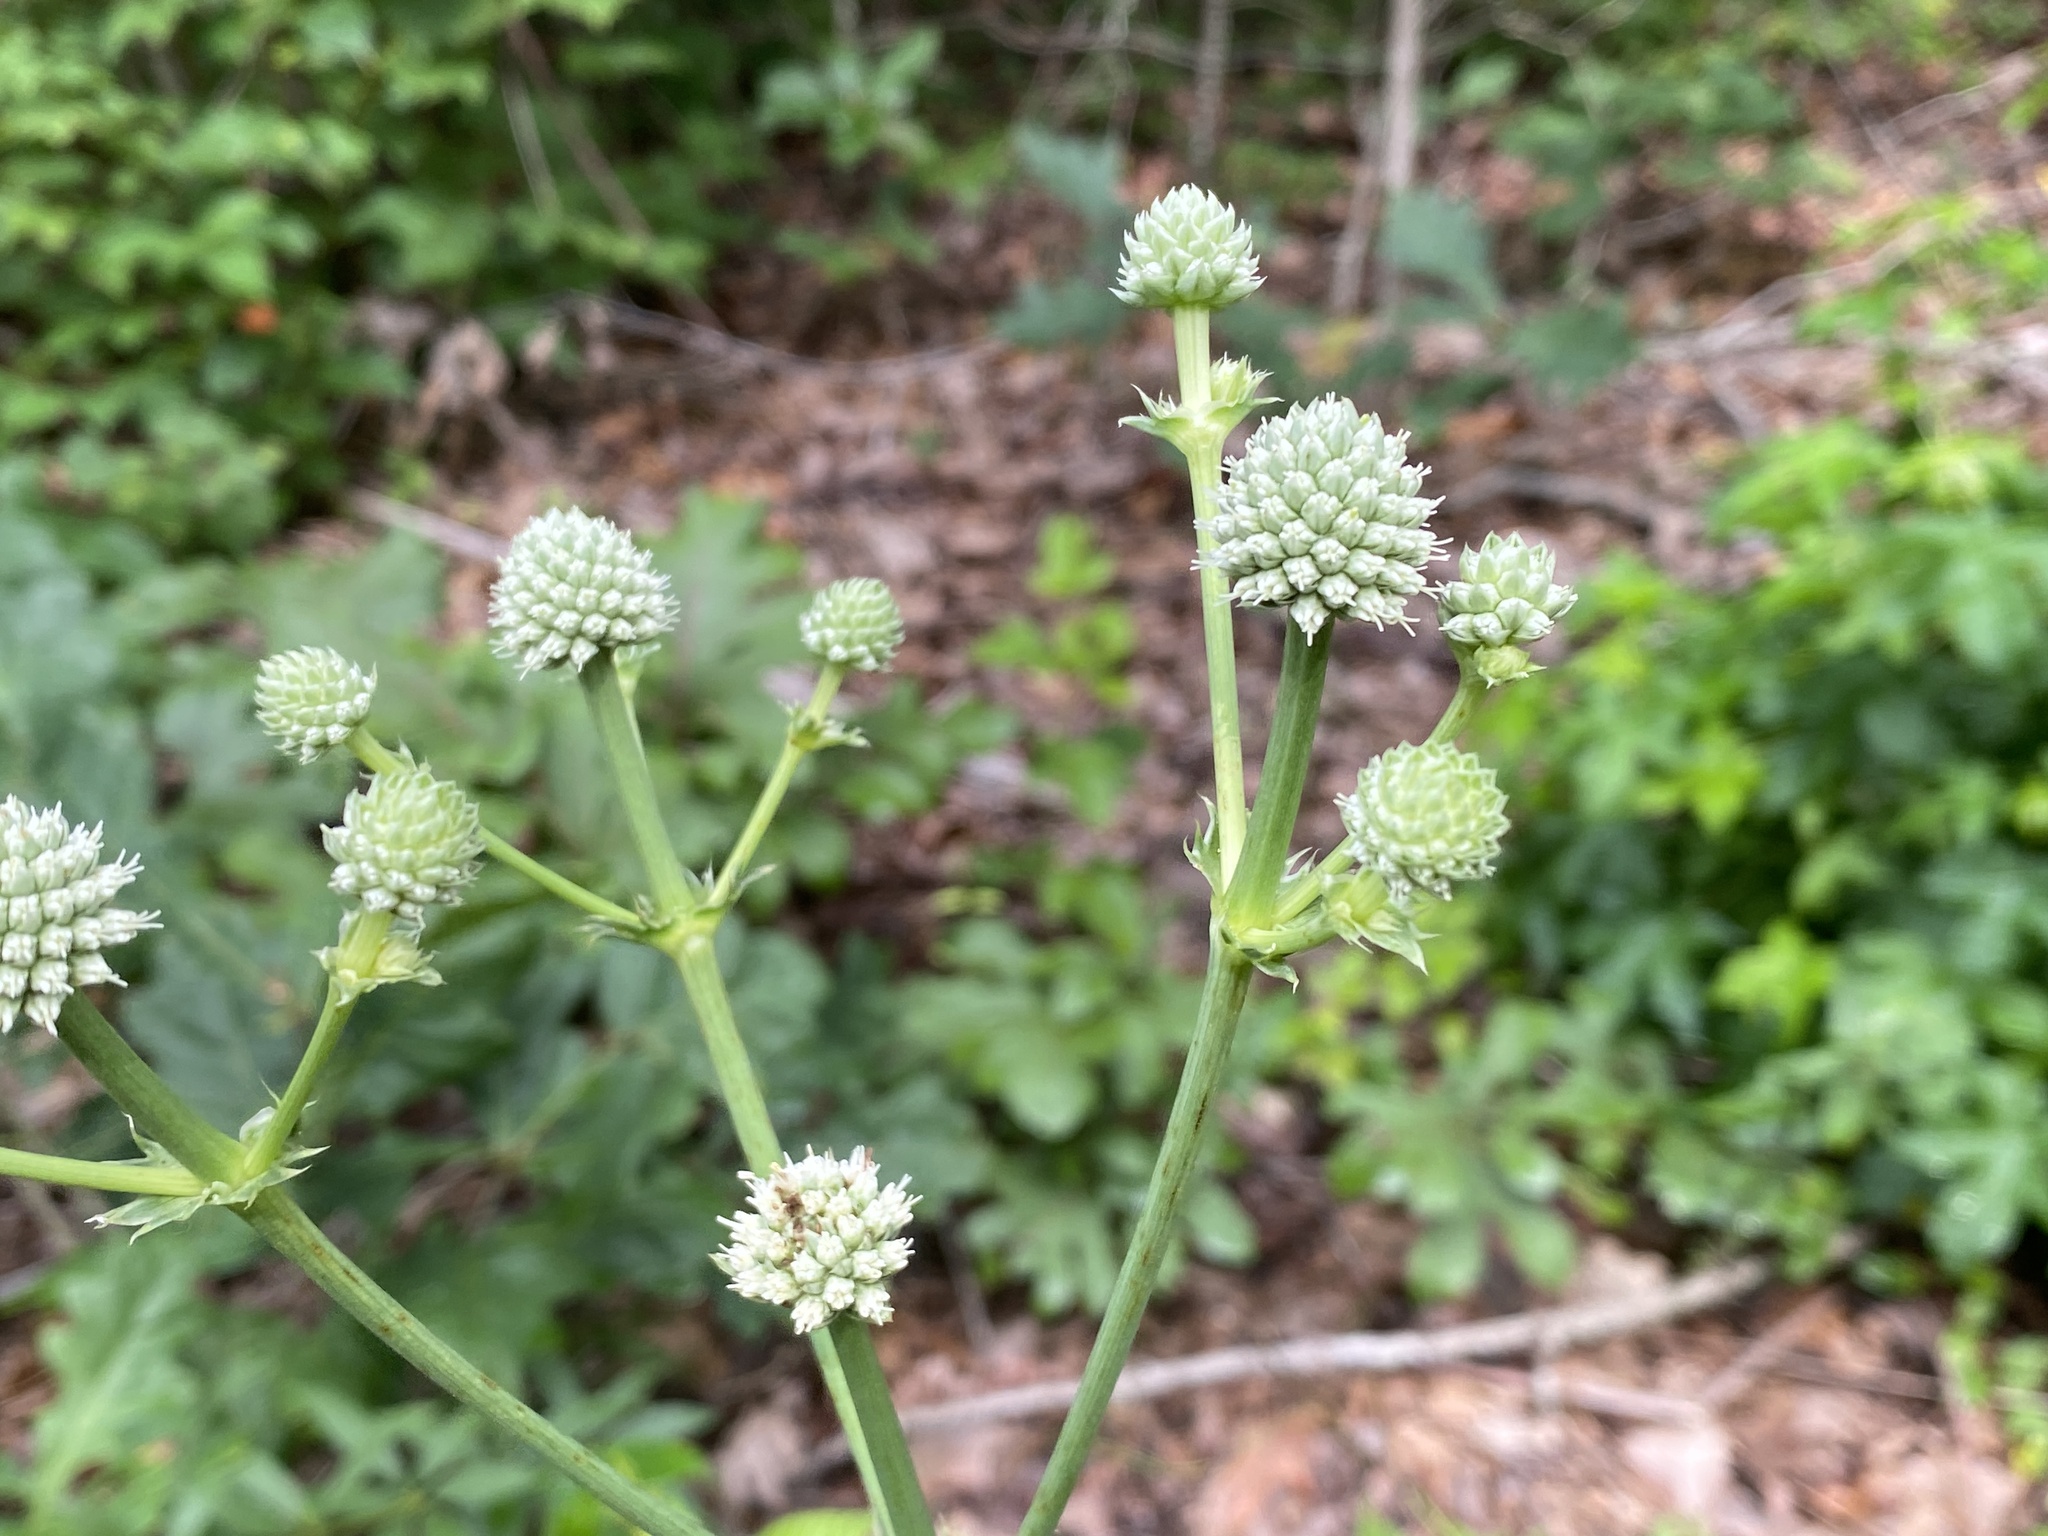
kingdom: Plantae
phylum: Tracheophyta
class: Magnoliopsida
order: Apiales
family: Apiaceae
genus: Eryngium
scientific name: Eryngium yuccifolium
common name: Button eryngo
